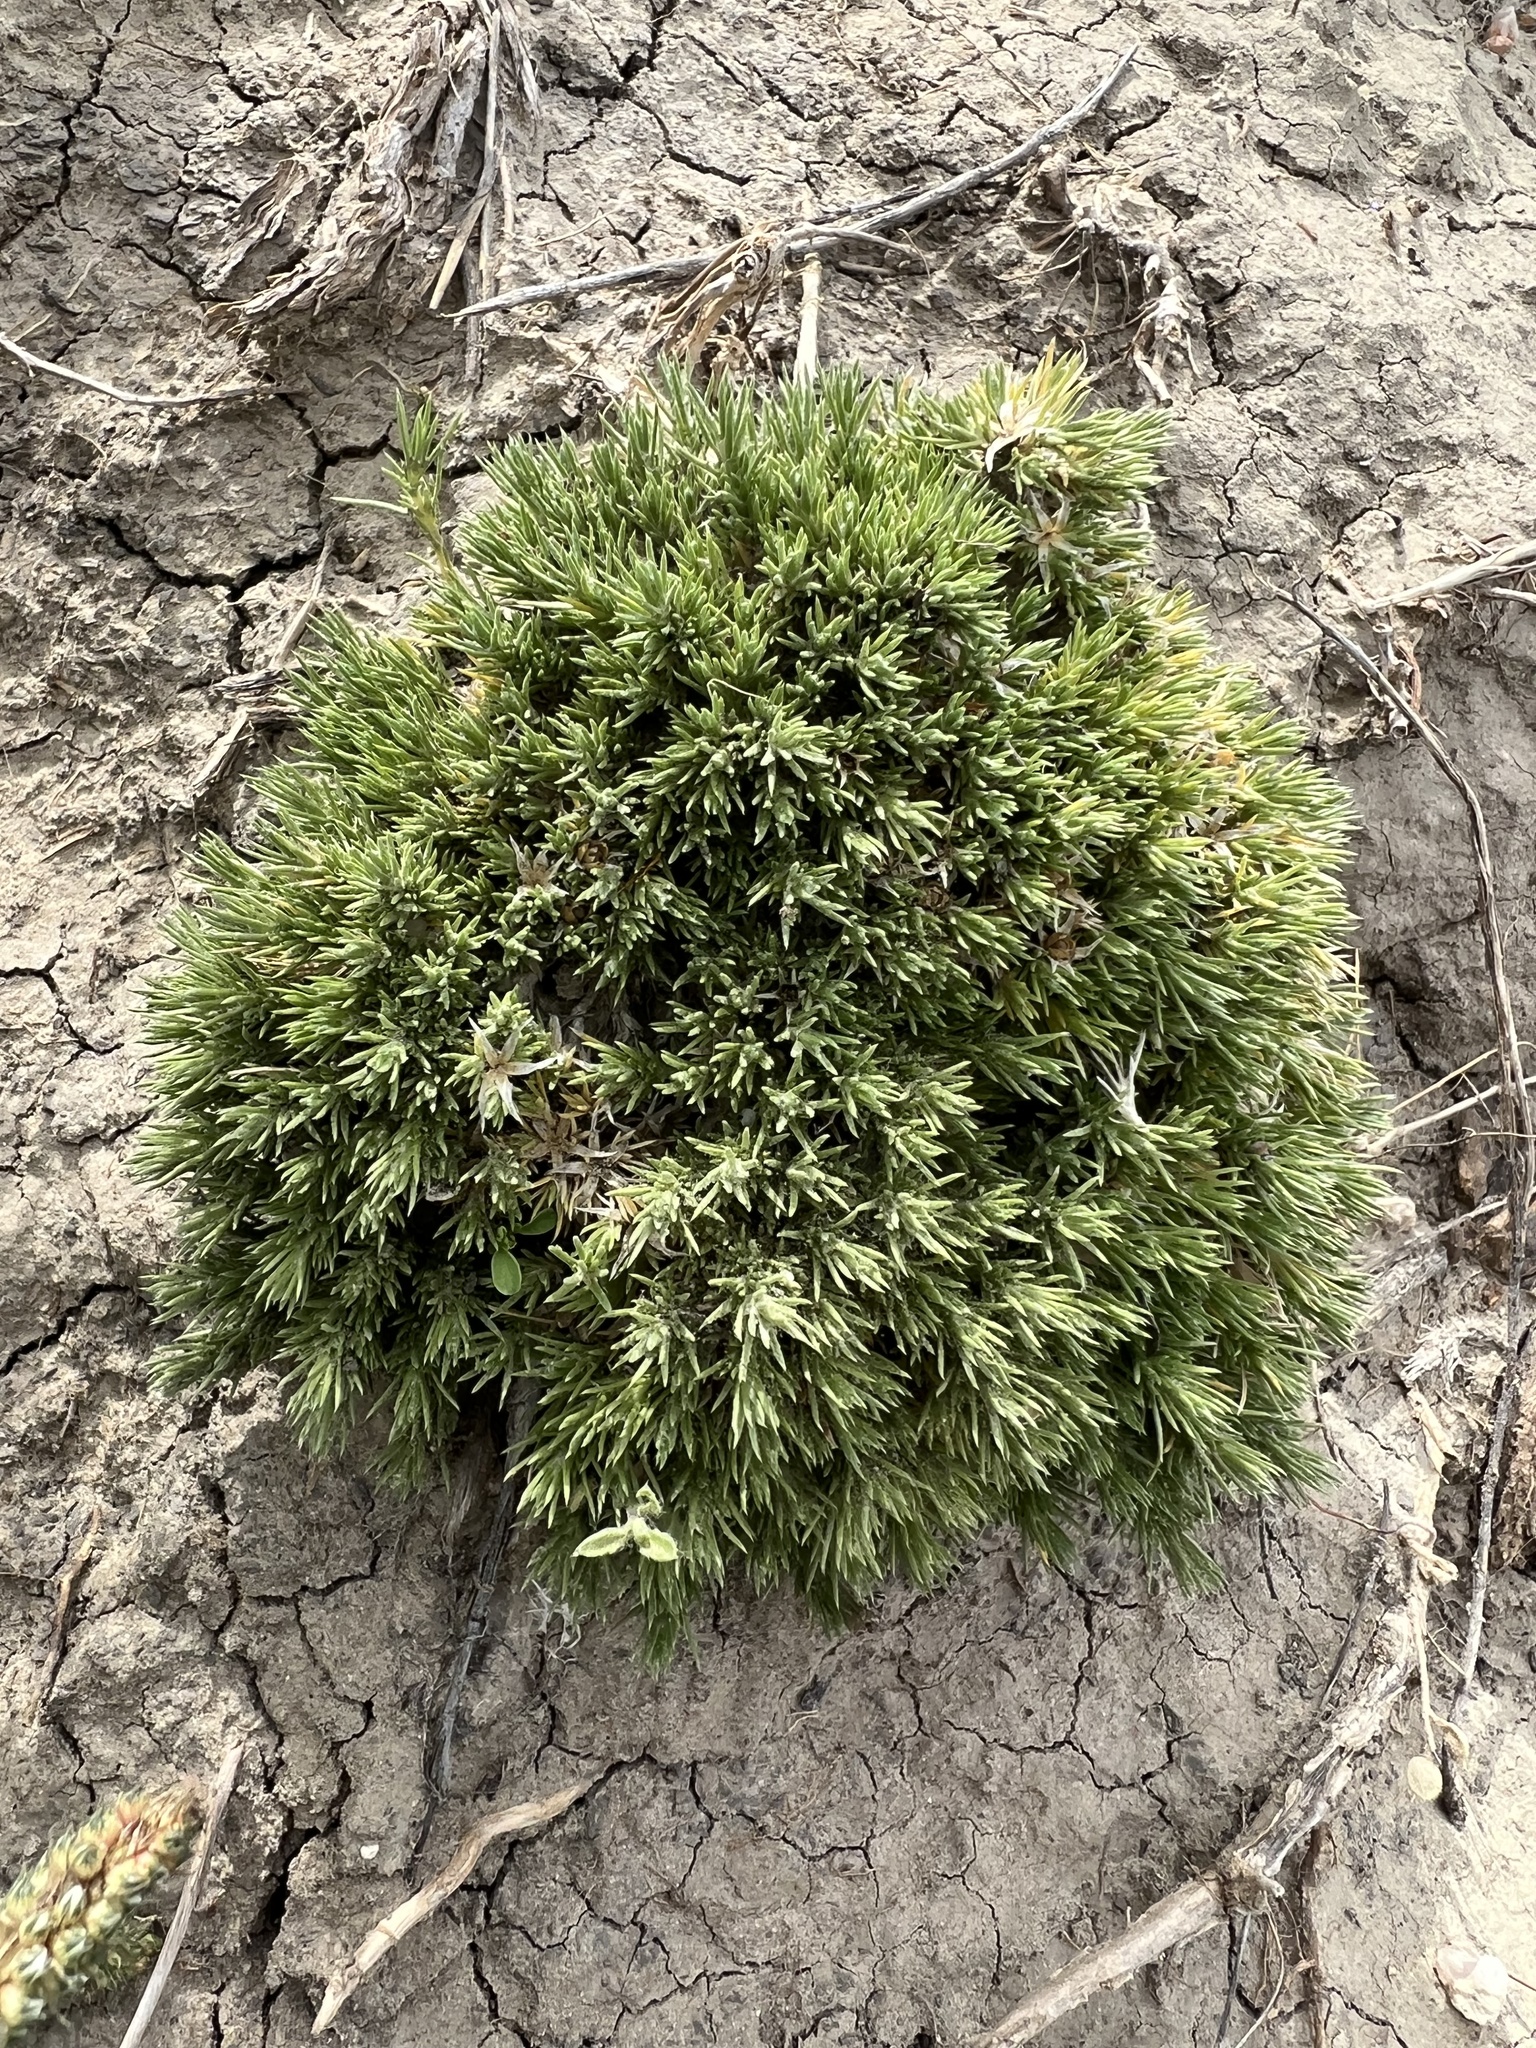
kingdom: Plantae
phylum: Tracheophyta
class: Magnoliopsida
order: Ericales
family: Polemoniaceae
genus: Phlox
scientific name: Phlox hoodii
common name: Moss phlox
